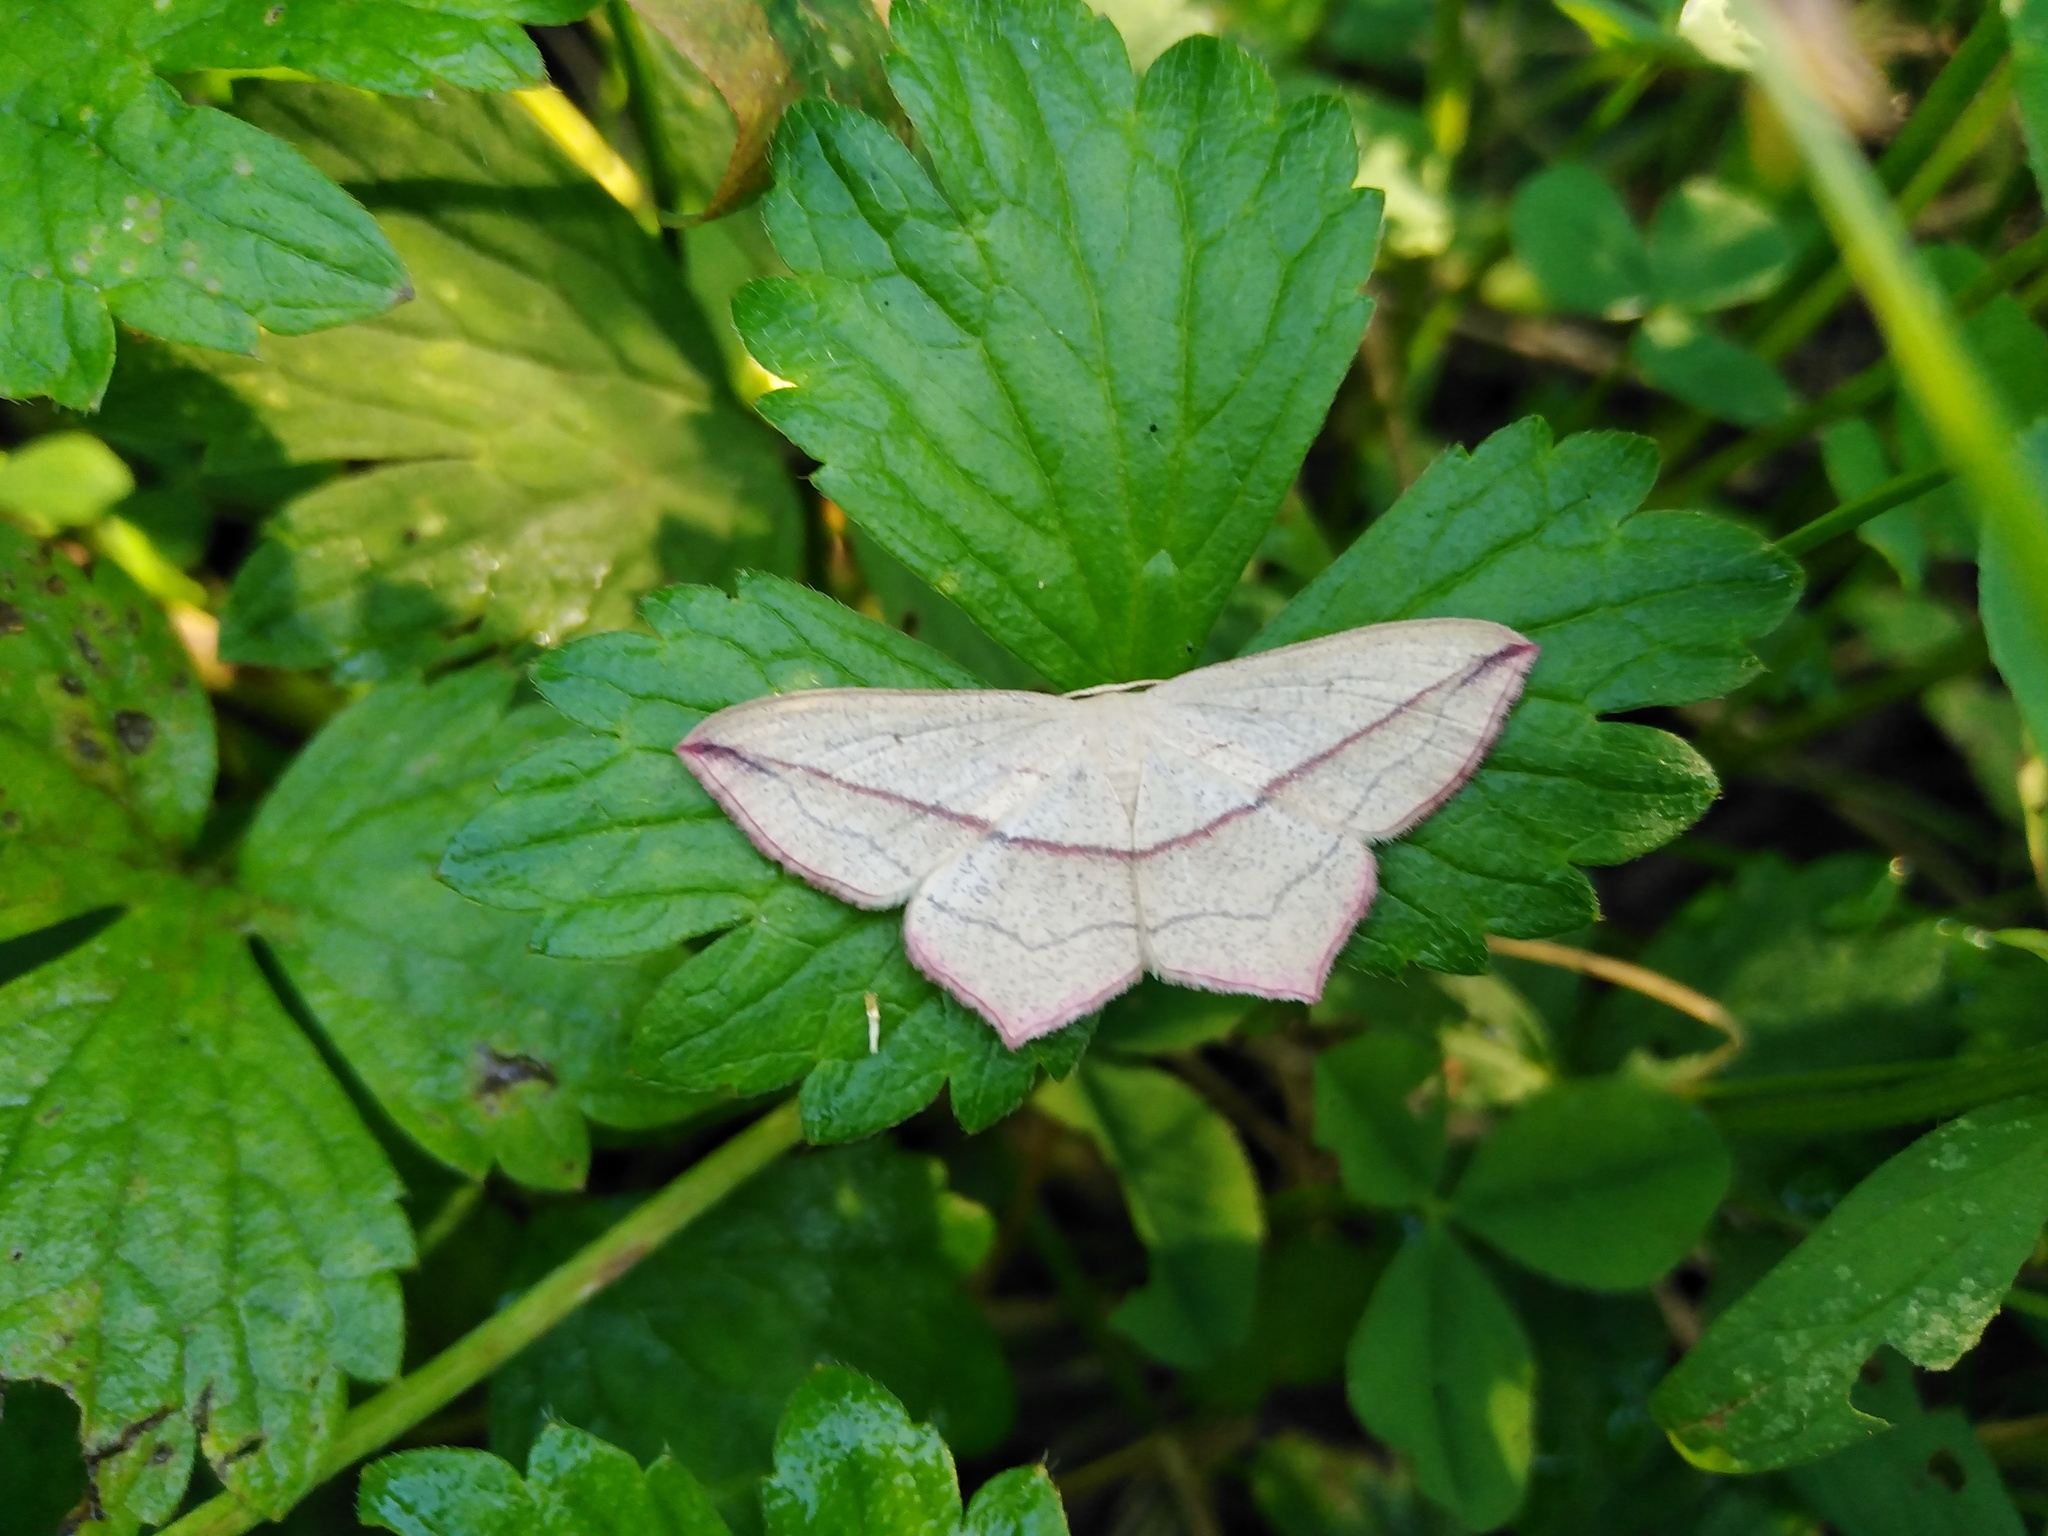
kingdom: Animalia
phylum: Arthropoda
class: Insecta
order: Lepidoptera
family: Geometridae
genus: Timandra
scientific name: Timandra comae
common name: Blood-vein
